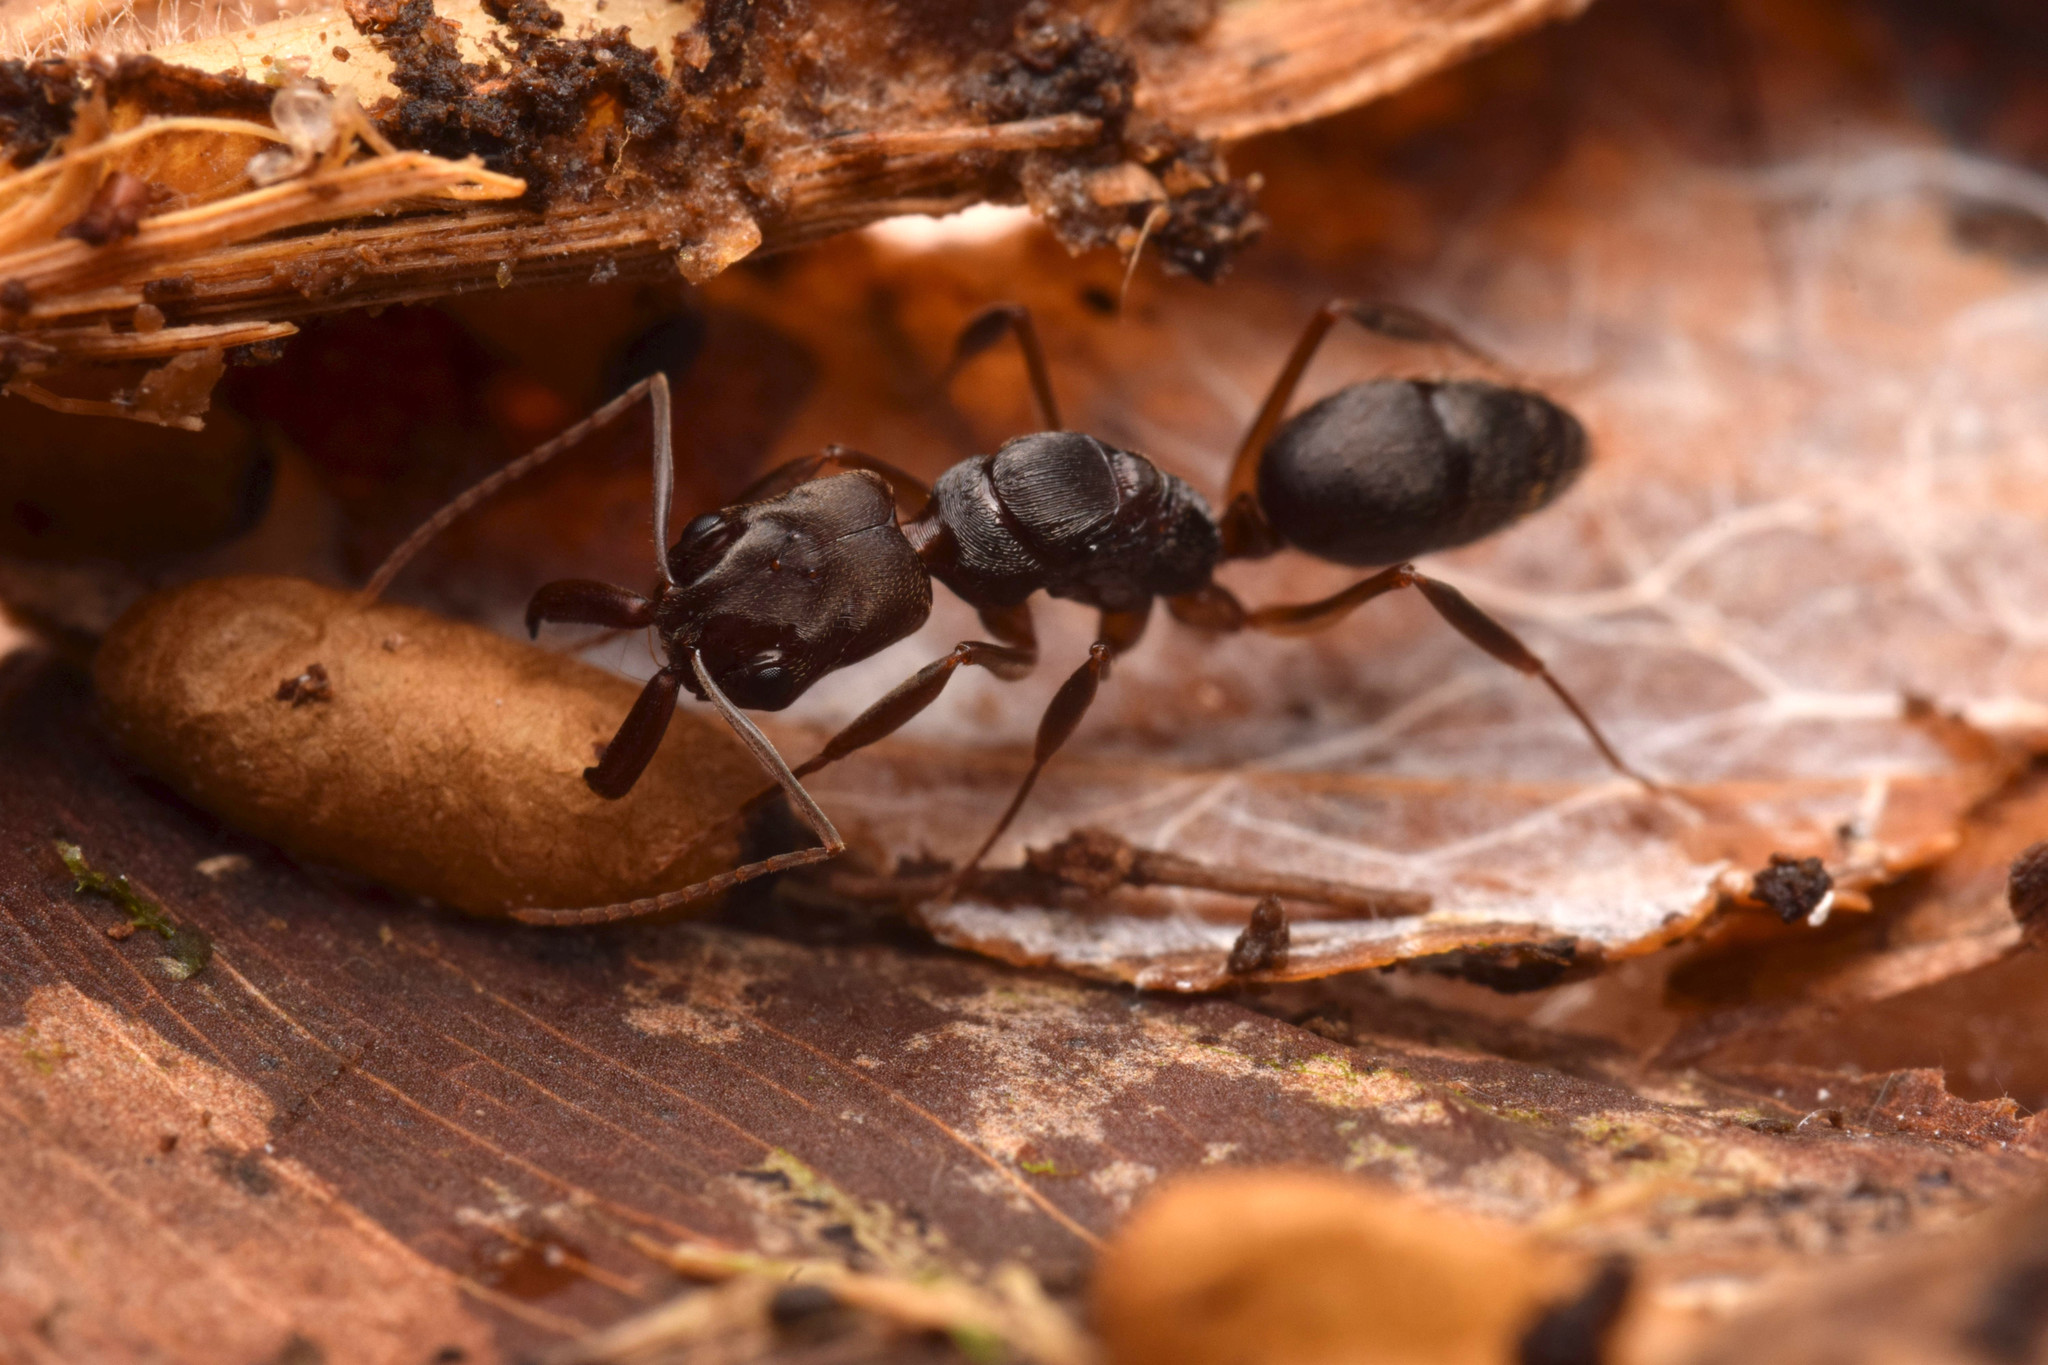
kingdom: Animalia
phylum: Arthropoda
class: Insecta
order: Hymenoptera
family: Formicidae
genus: Odontomachus
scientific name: Odontomachus laticeps
